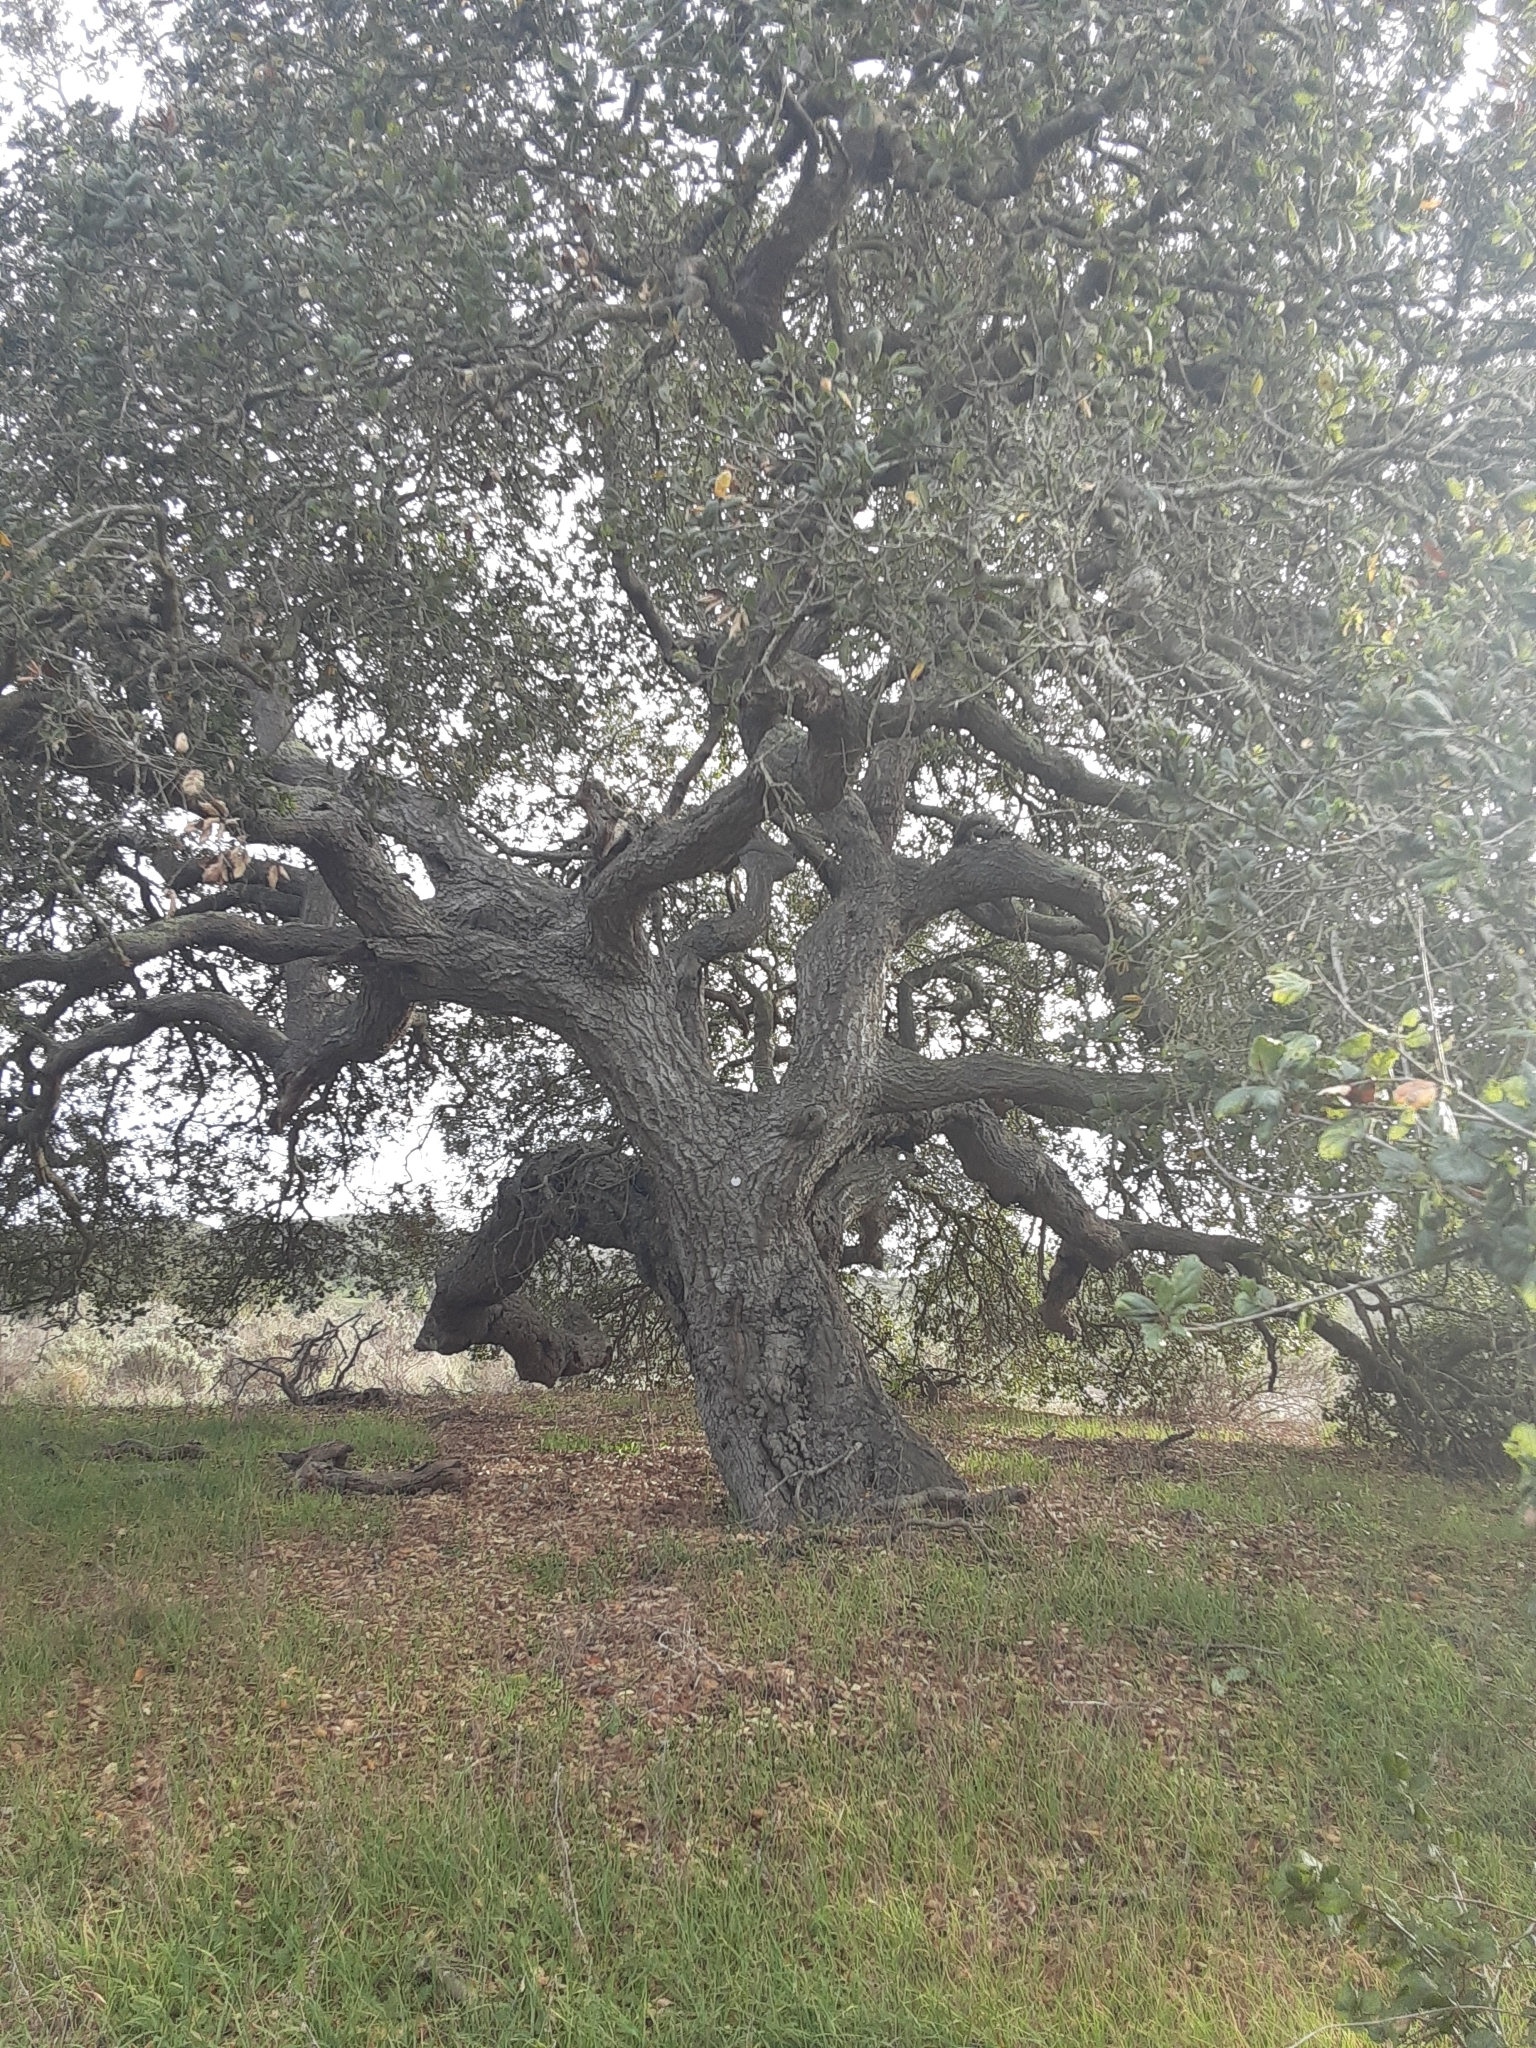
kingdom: Plantae
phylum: Tracheophyta
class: Magnoliopsida
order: Fagales
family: Fagaceae
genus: Quercus
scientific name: Quercus agrifolia
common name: California live oak
